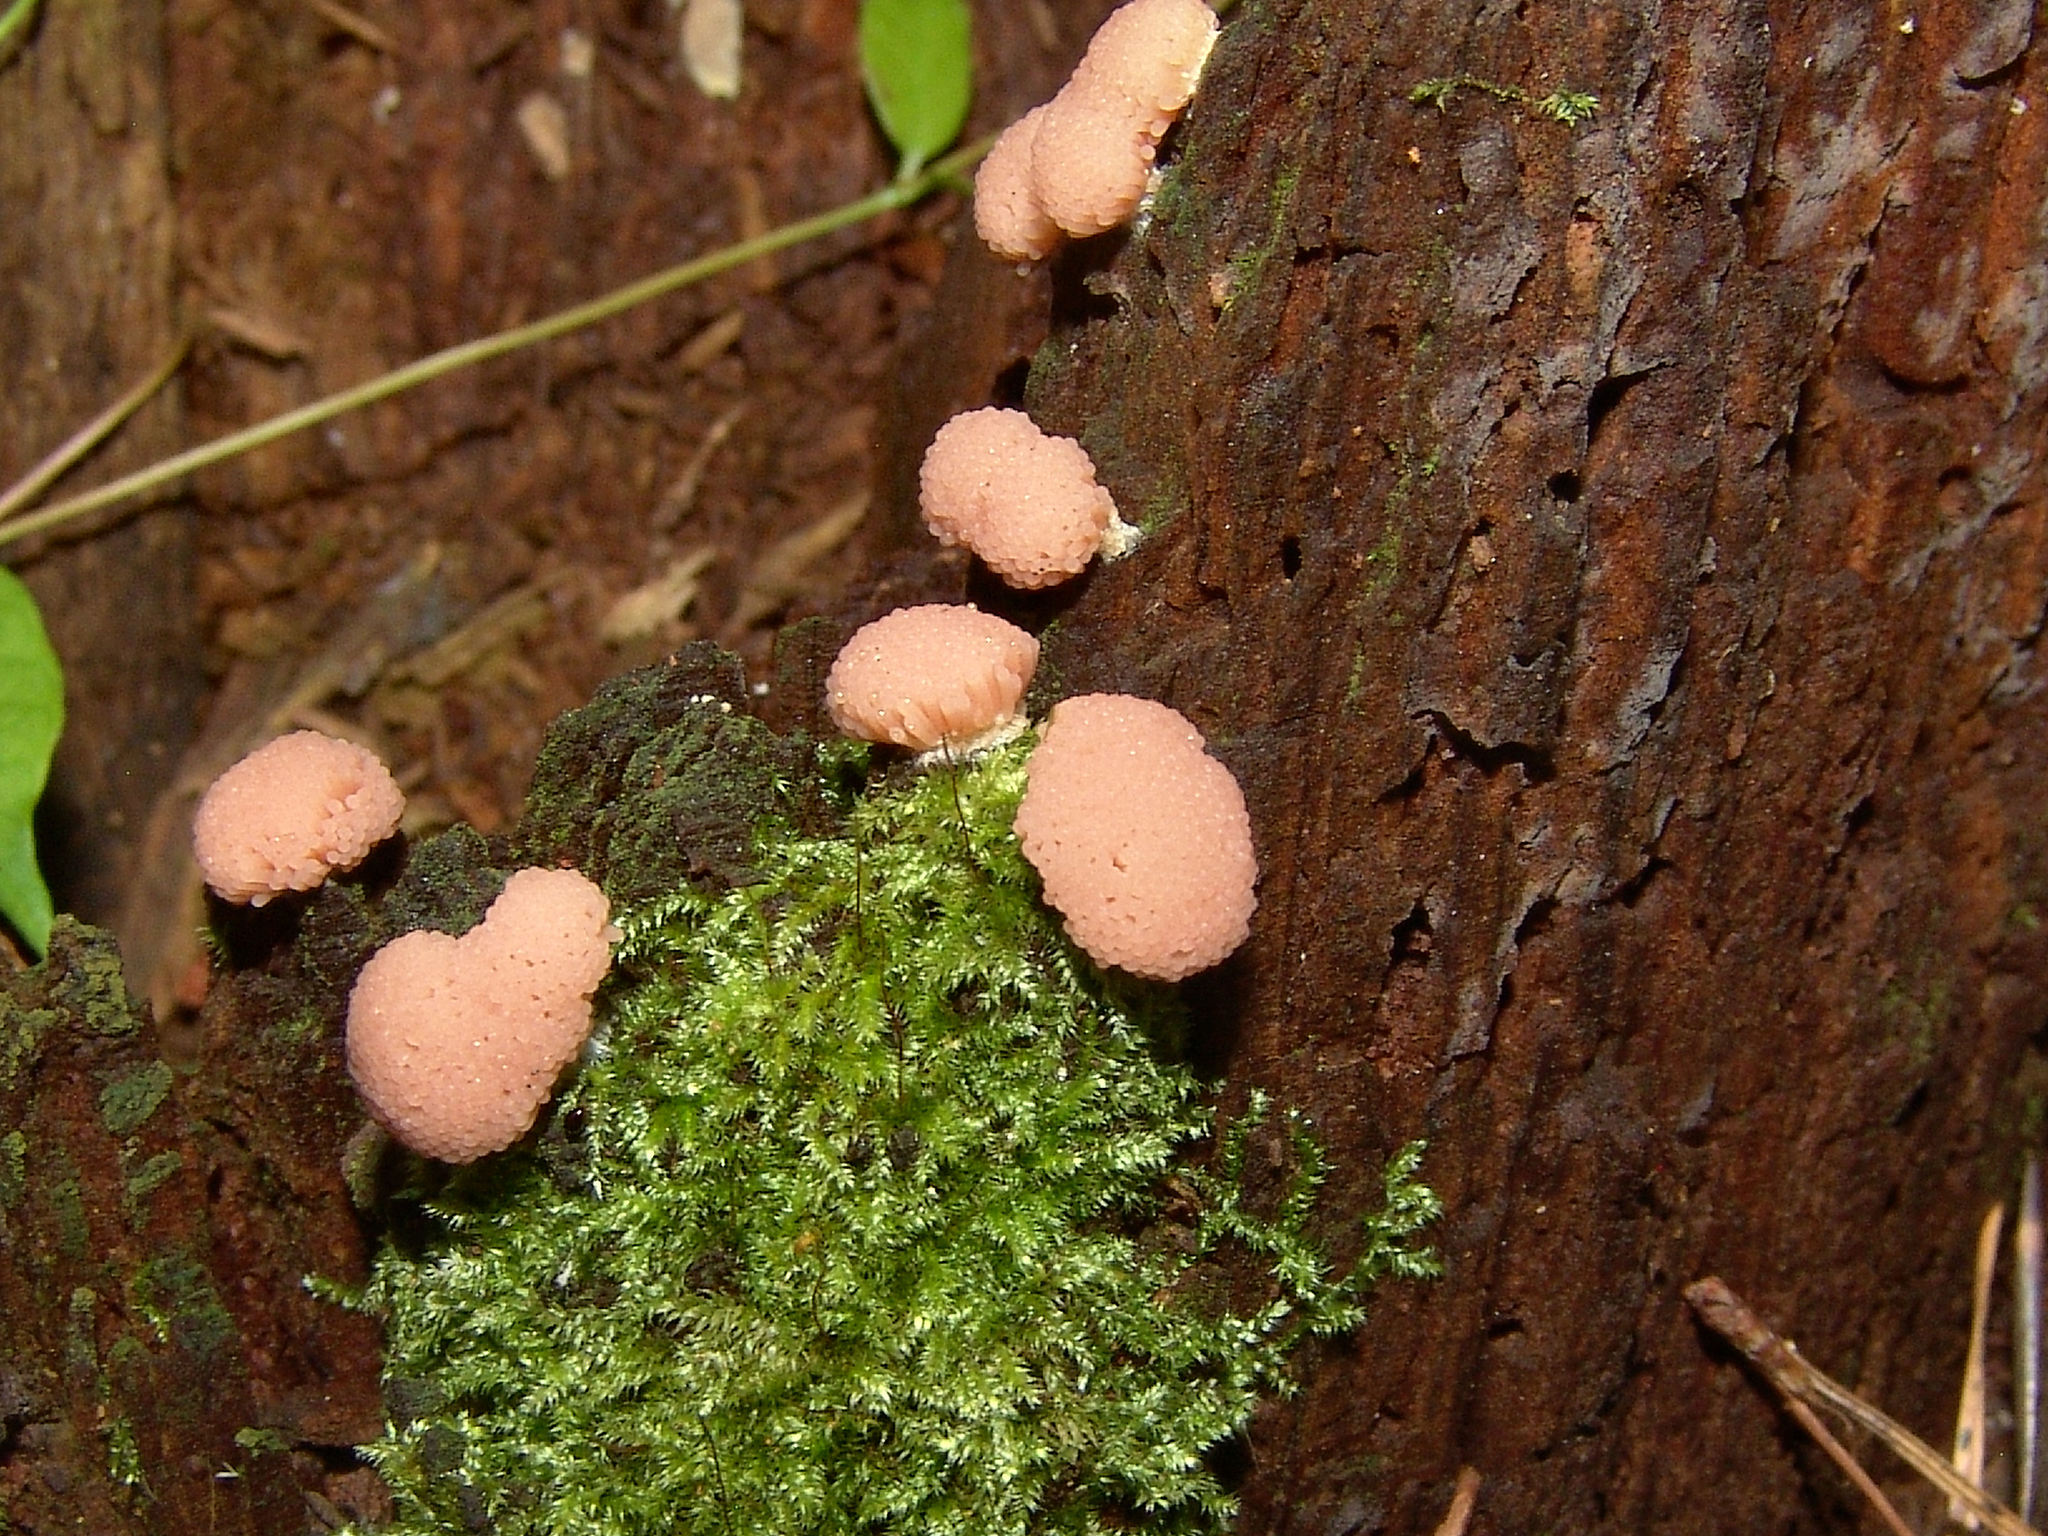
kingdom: Protozoa
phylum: Mycetozoa
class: Myxomycetes
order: Cribrariales
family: Tubiferaceae
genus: Tubifera
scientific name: Tubifera ferruginosa
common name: Red raspberry slime mold
